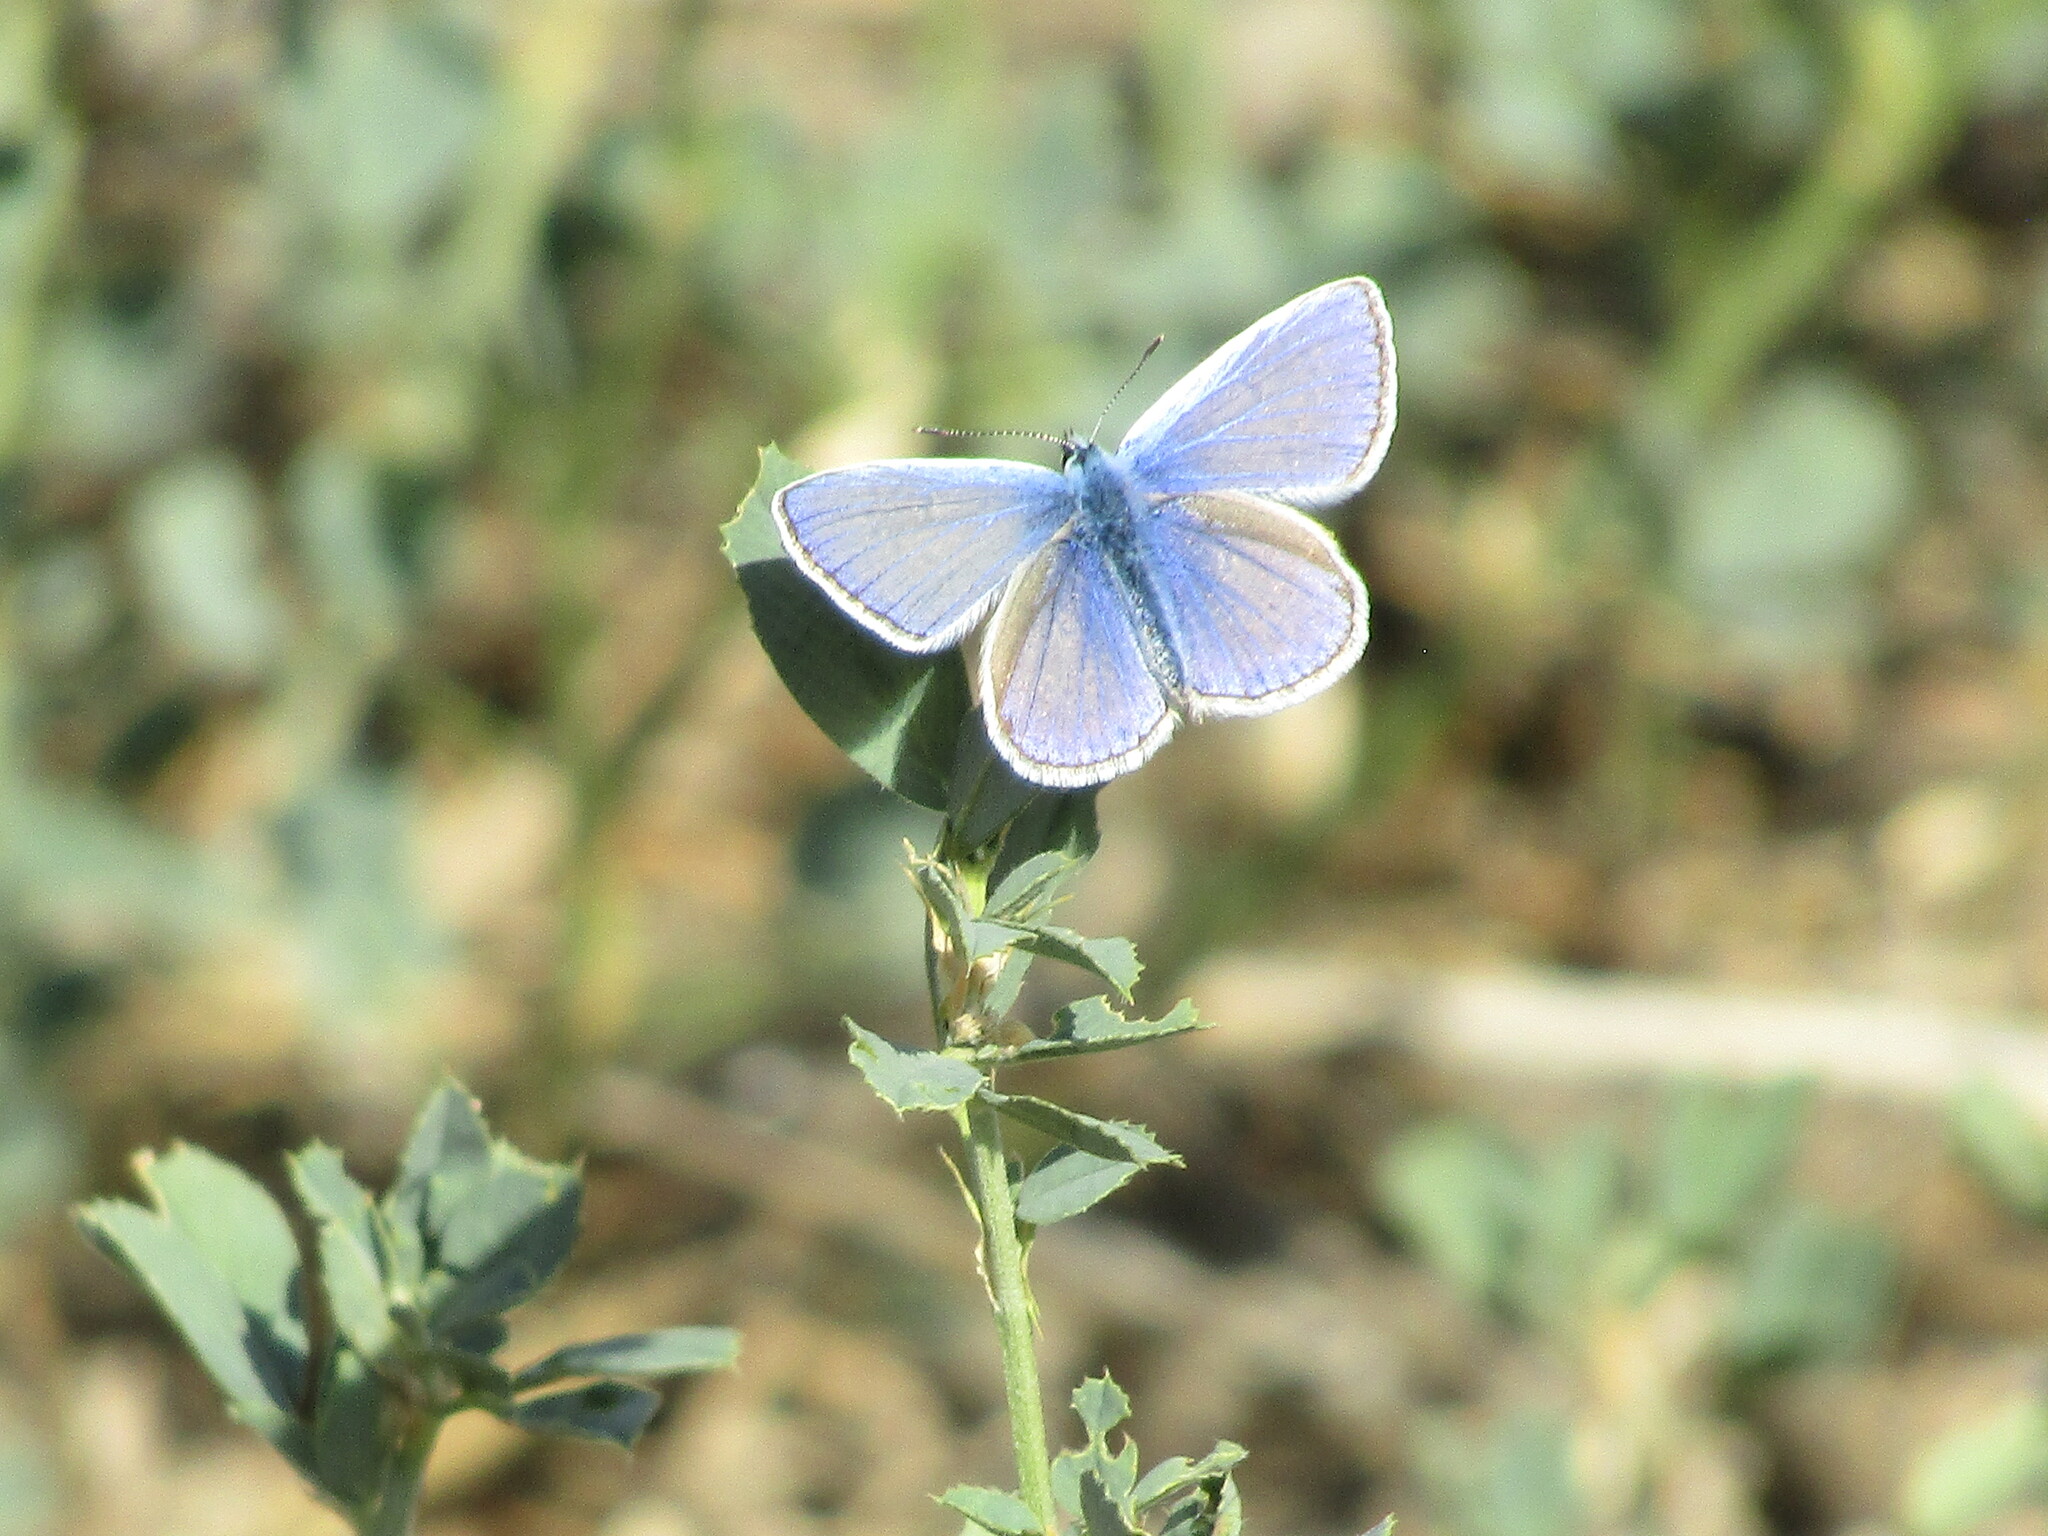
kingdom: Animalia
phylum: Arthropoda
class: Insecta
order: Lepidoptera
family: Lycaenidae
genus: Polyommatus
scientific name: Polyommatus icarus
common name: Common blue
